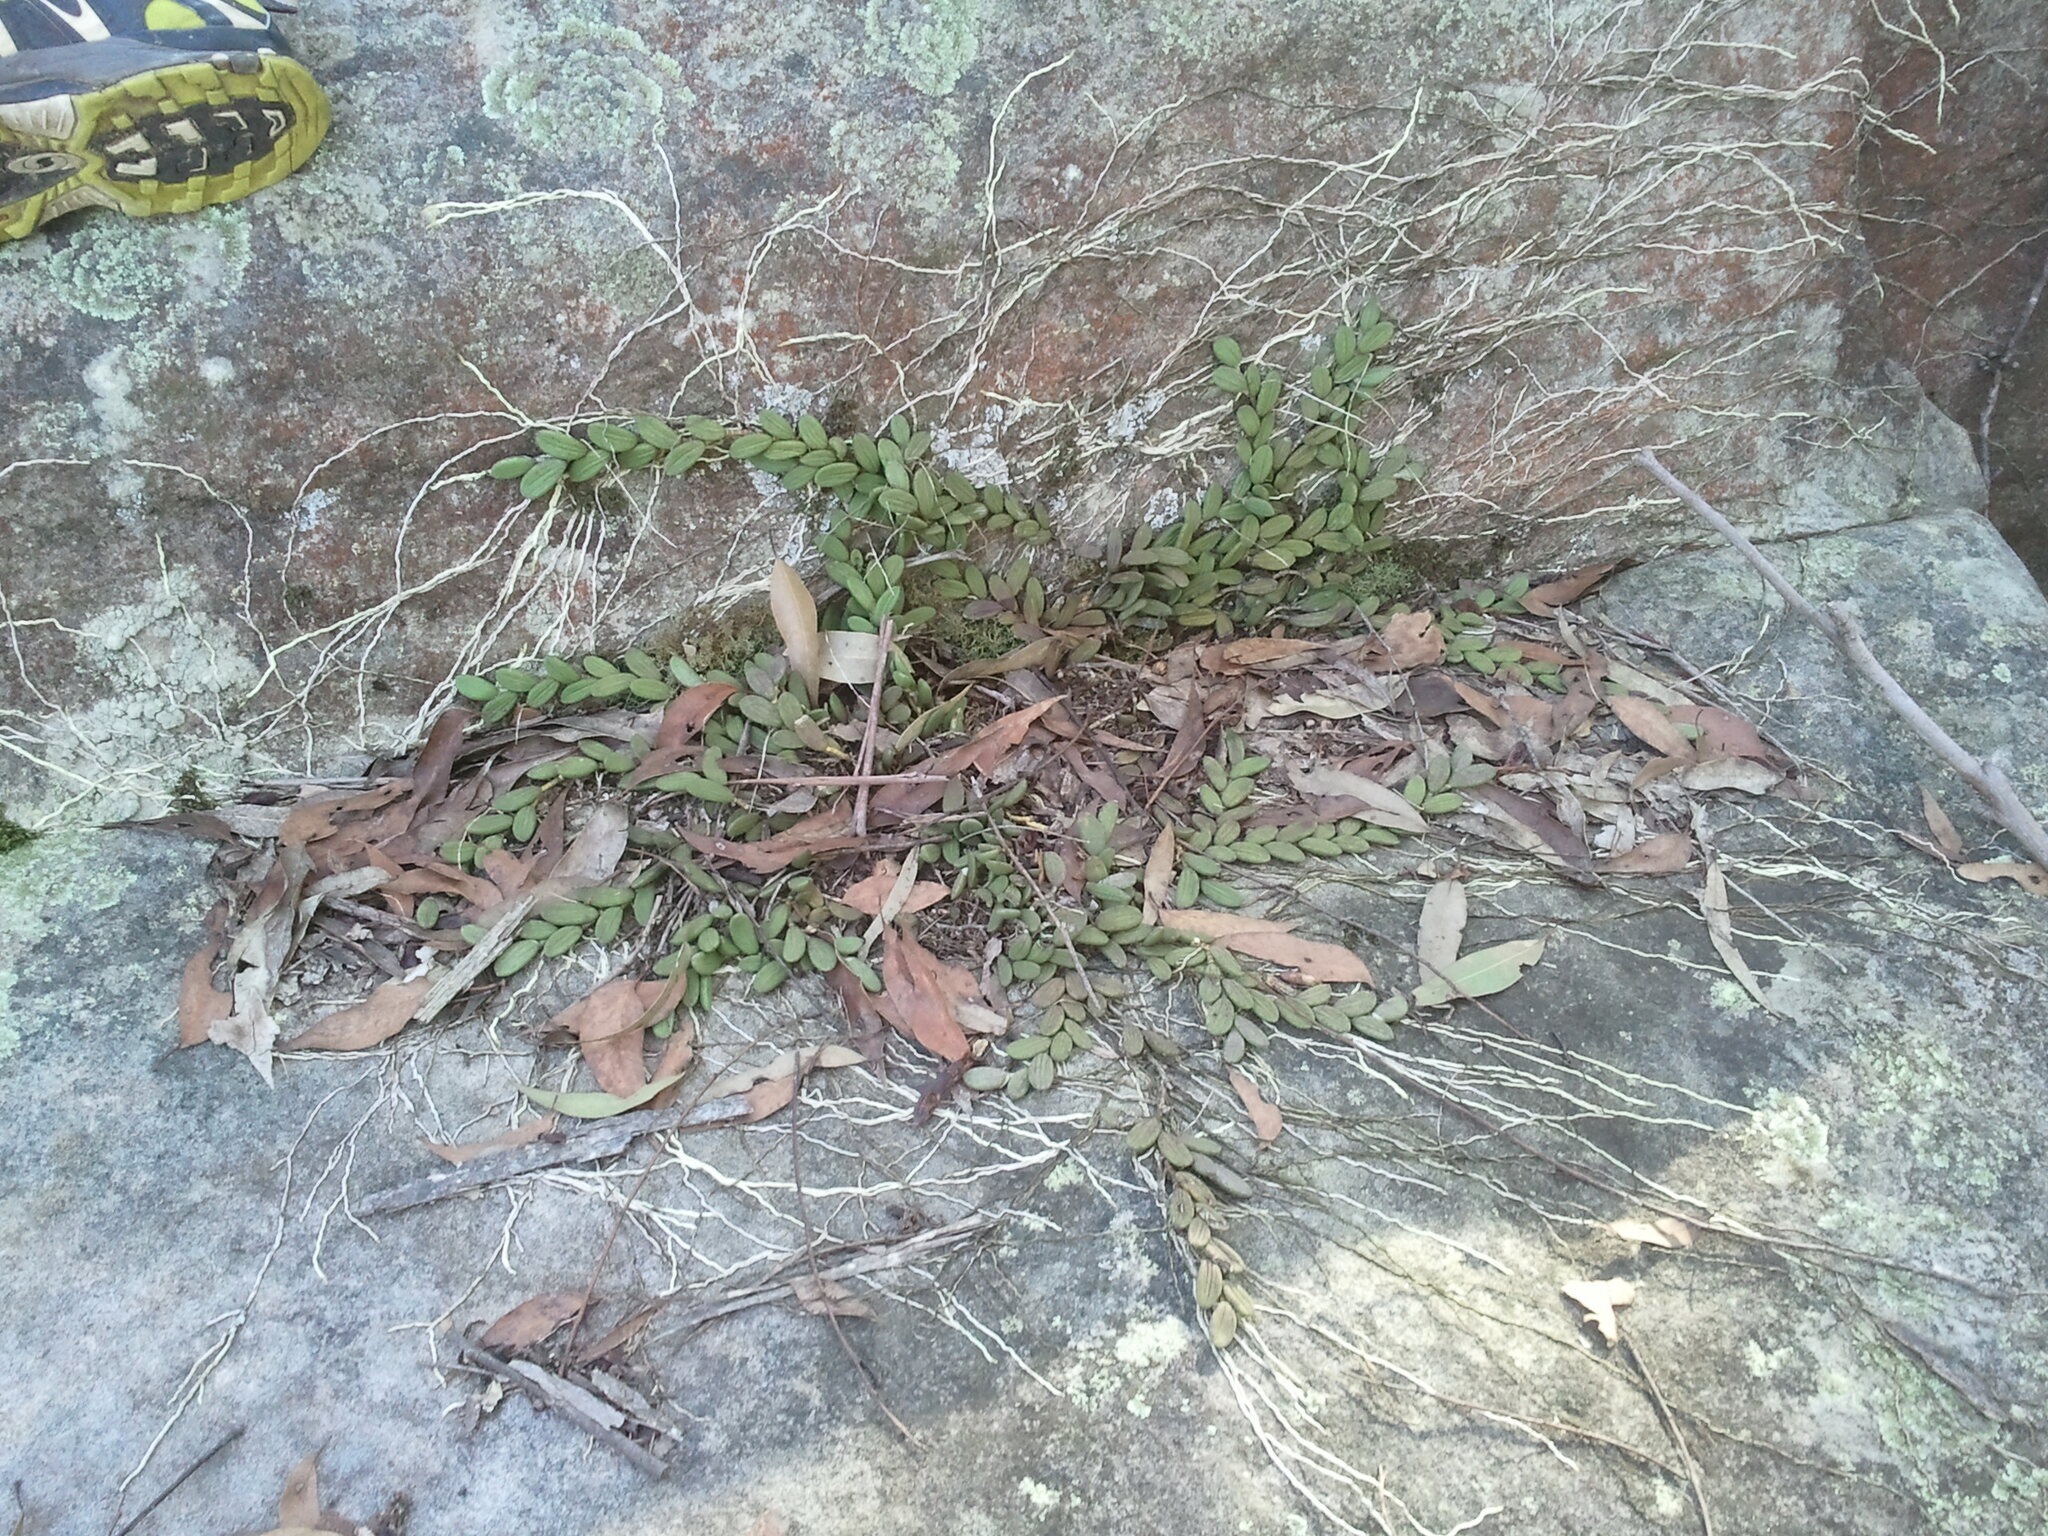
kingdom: Plantae
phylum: Tracheophyta
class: Liliopsida
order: Asparagales
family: Orchidaceae
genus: Dendrobium
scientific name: Dendrobium linguiforme
